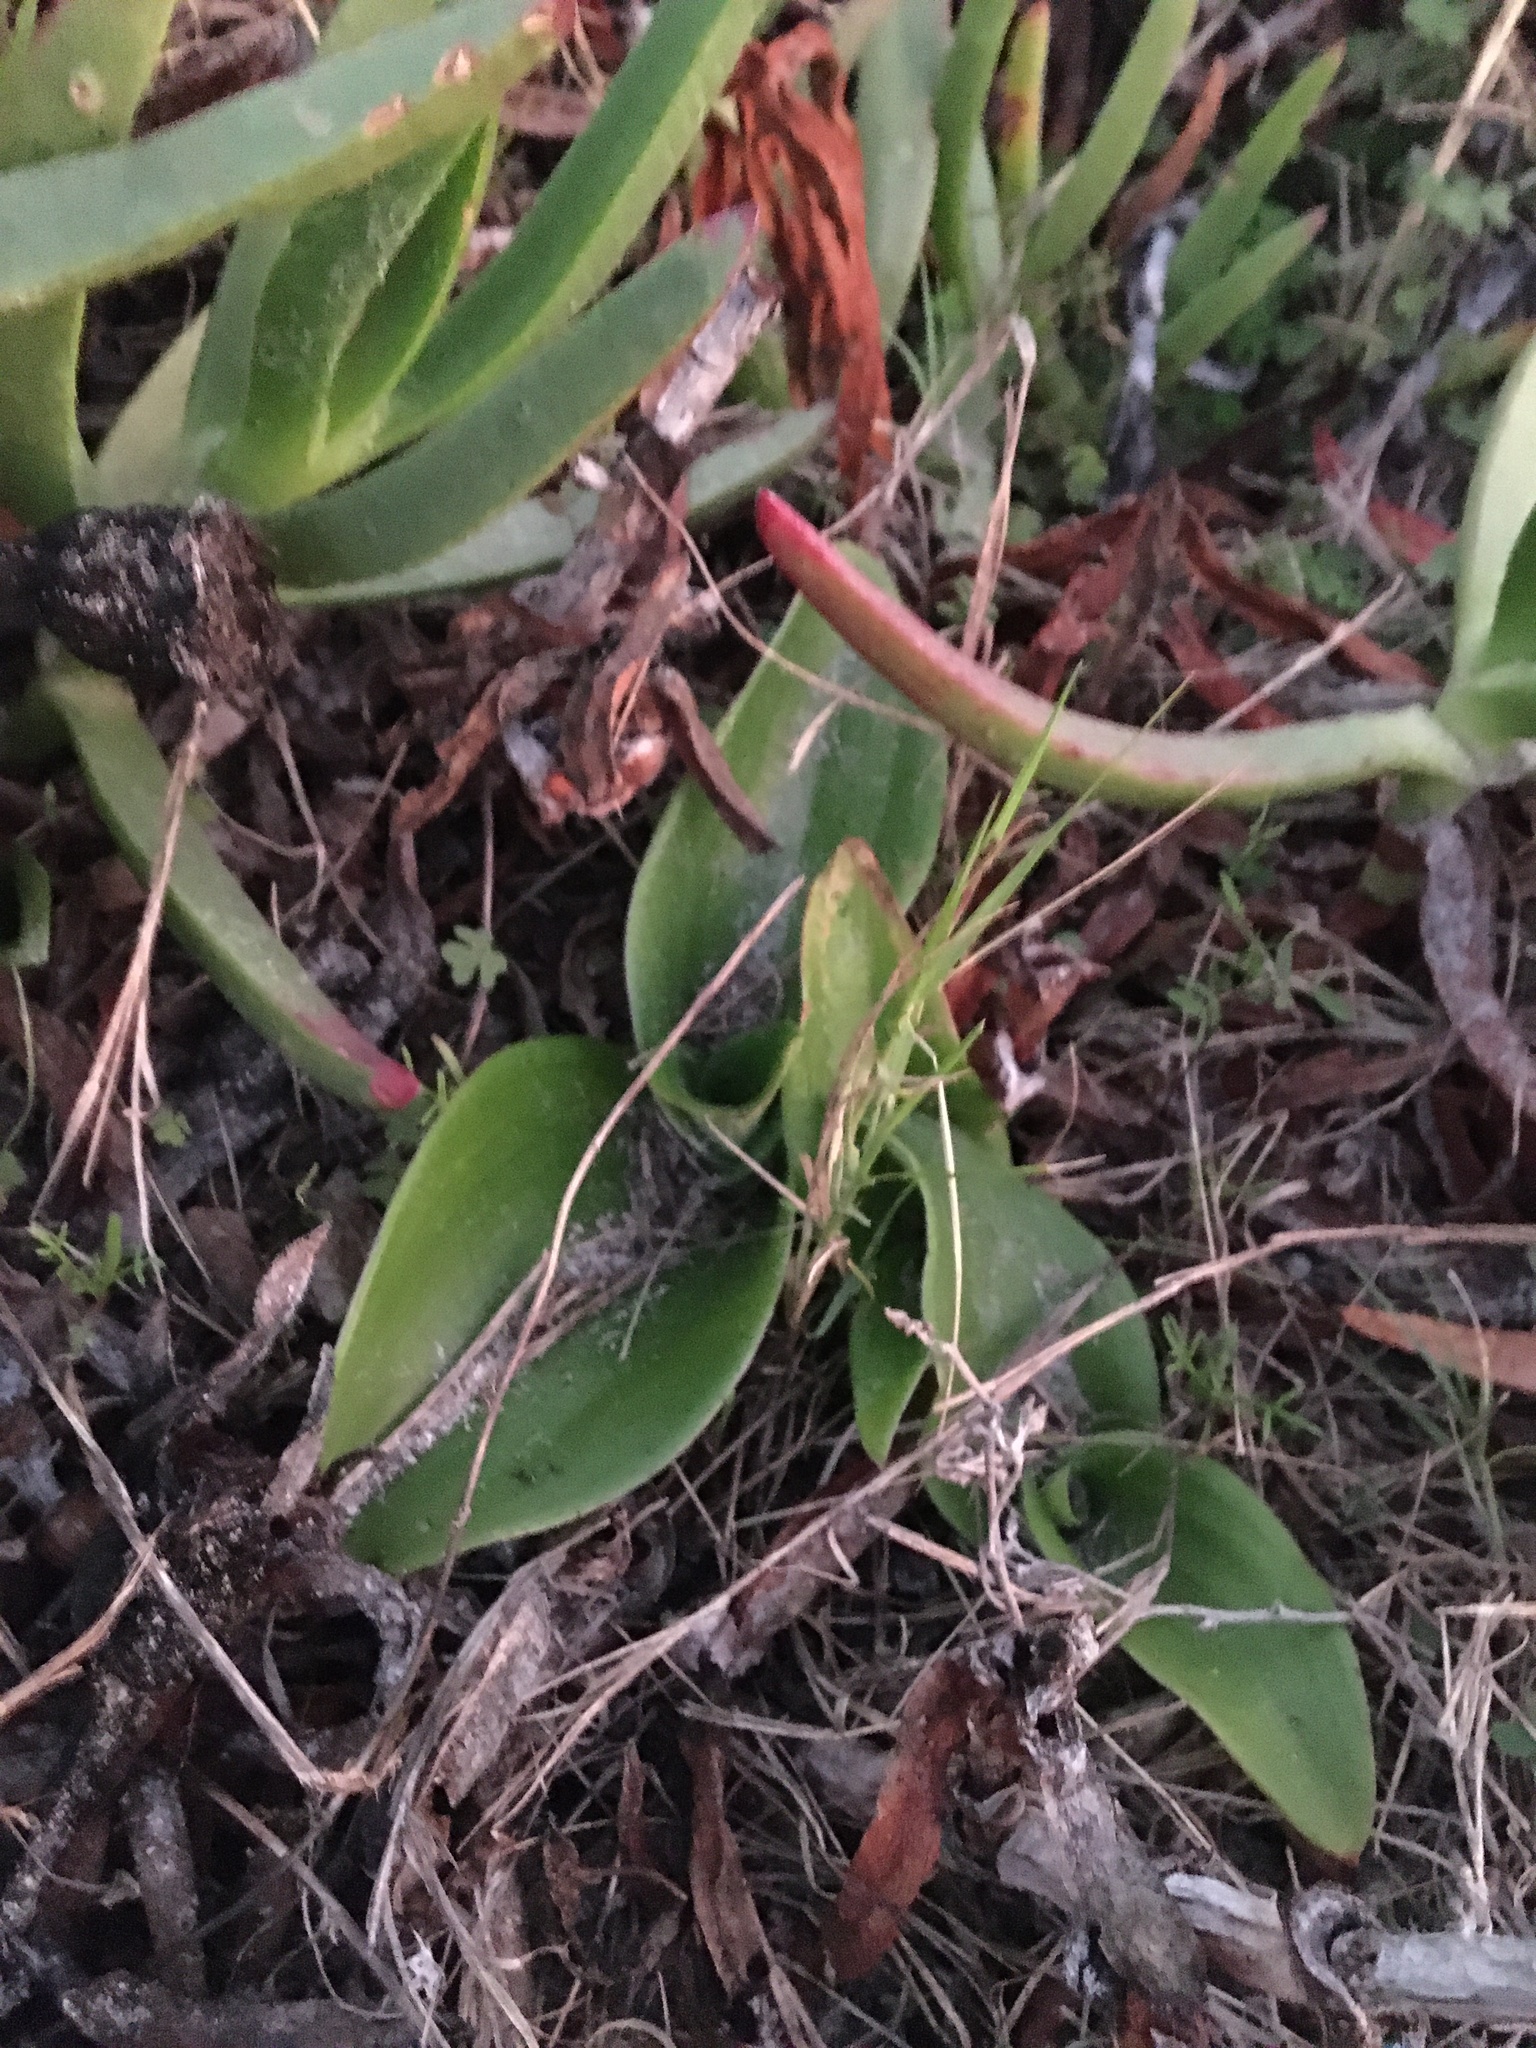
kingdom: Plantae
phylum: Tracheophyta
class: Liliopsida
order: Asparagales
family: Orchidaceae
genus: Satyrium
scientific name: Satyrium odorum
